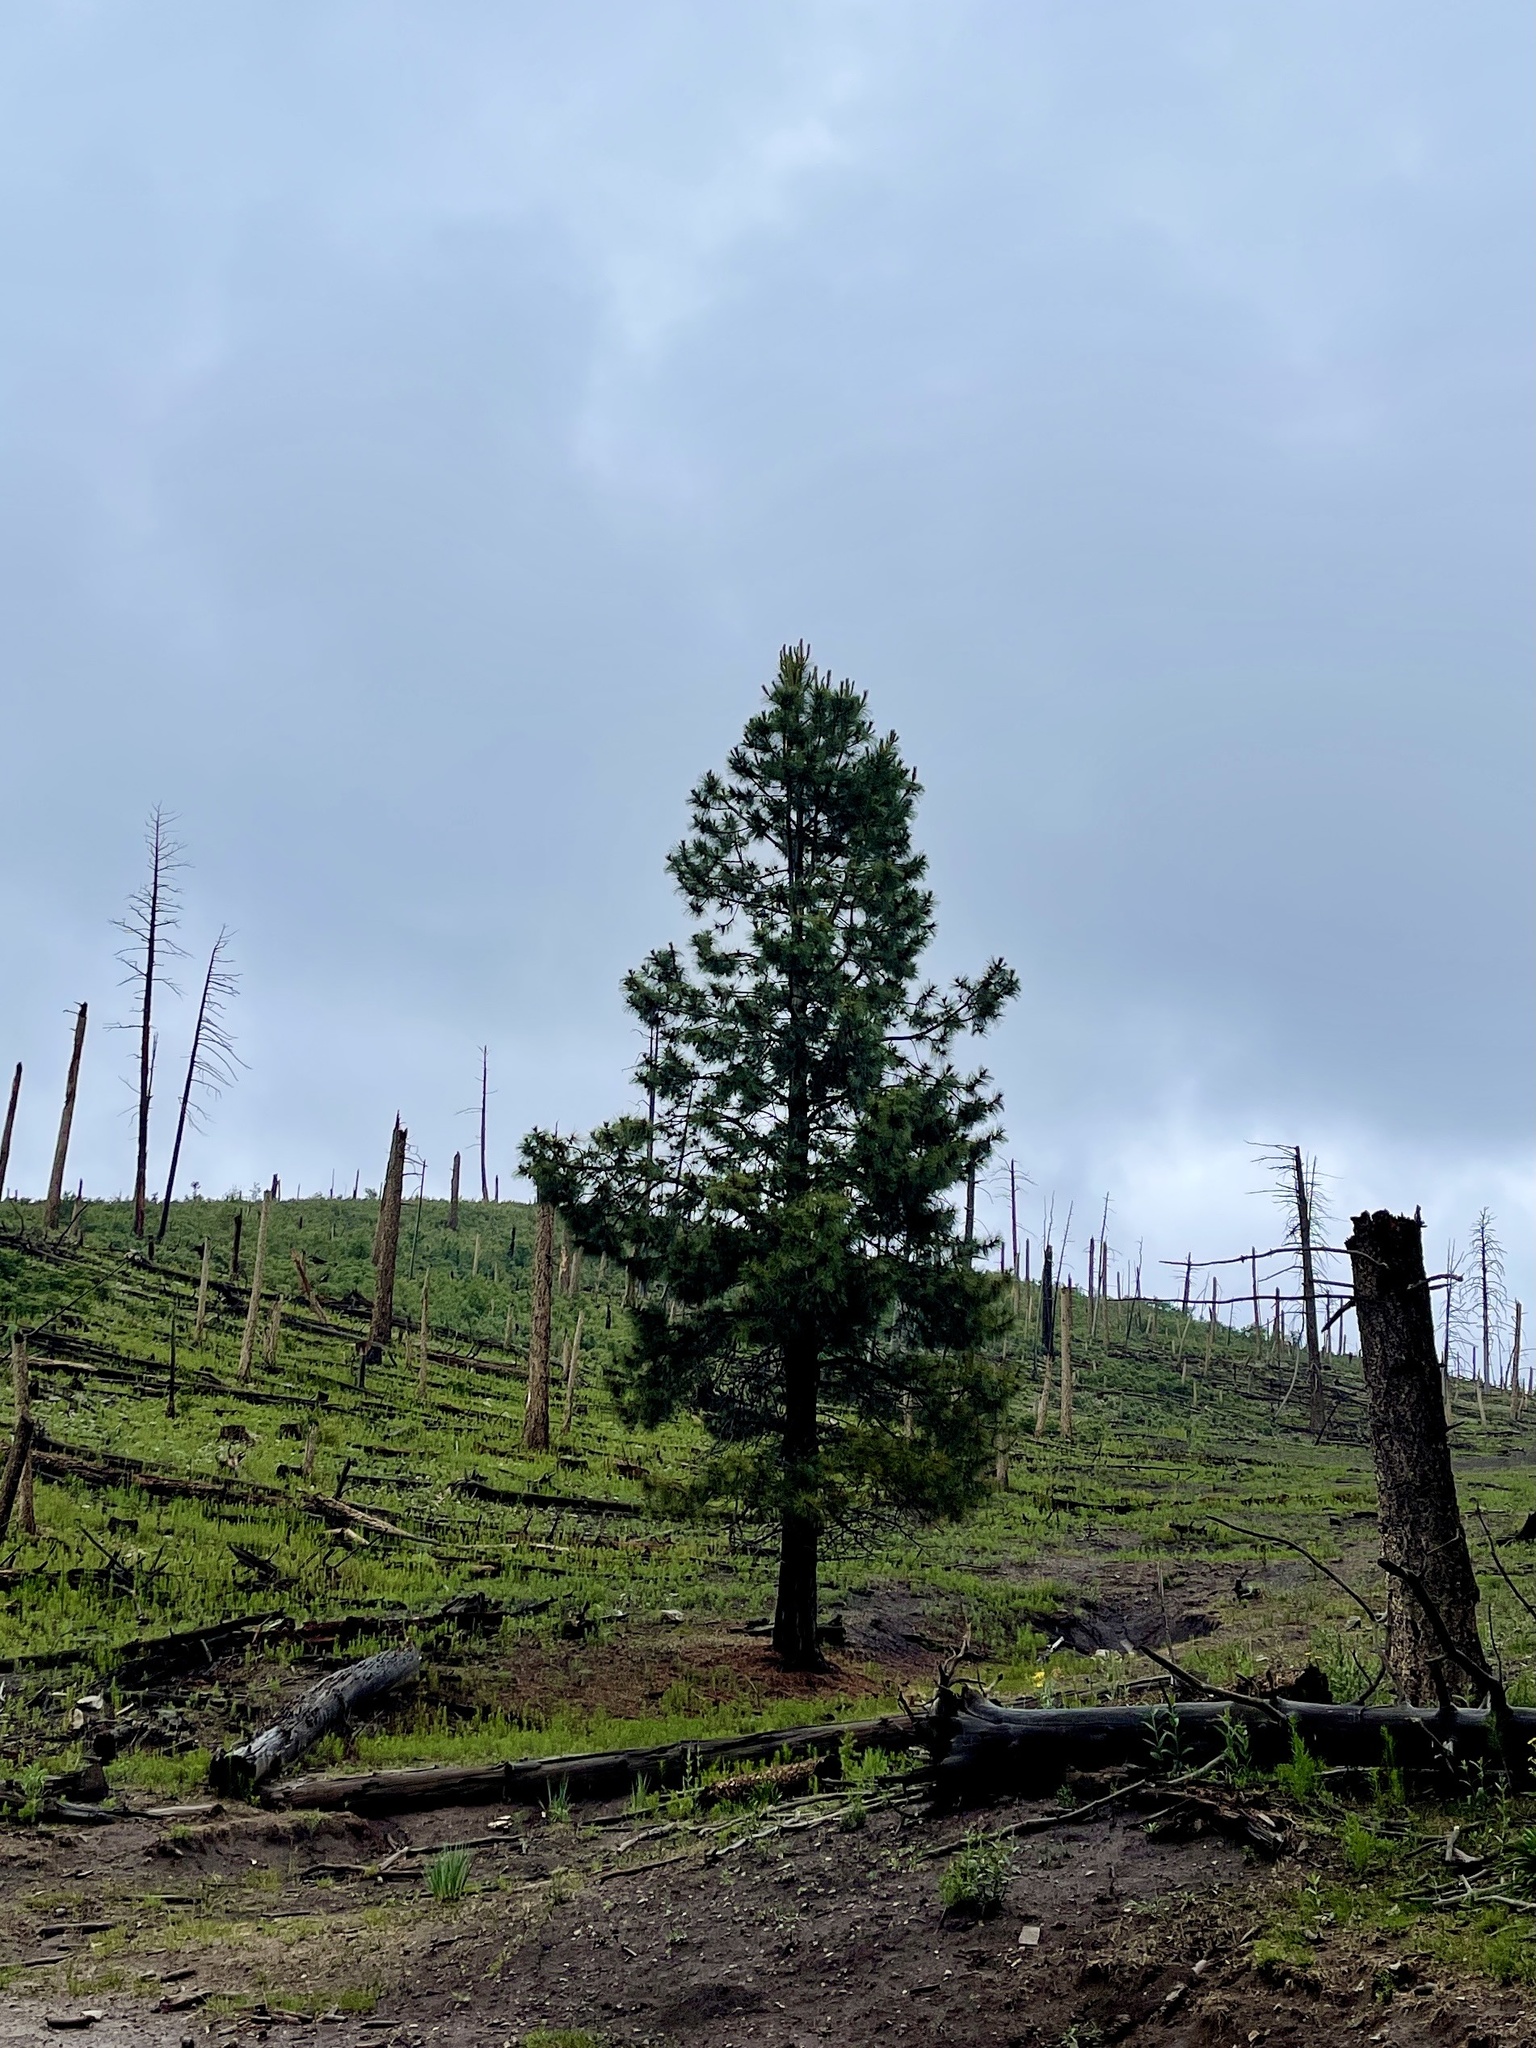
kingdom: Plantae
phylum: Tracheophyta
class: Pinopsida
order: Pinales
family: Pinaceae
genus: Pinus
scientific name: Pinus ponderosa
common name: Western yellow-pine
